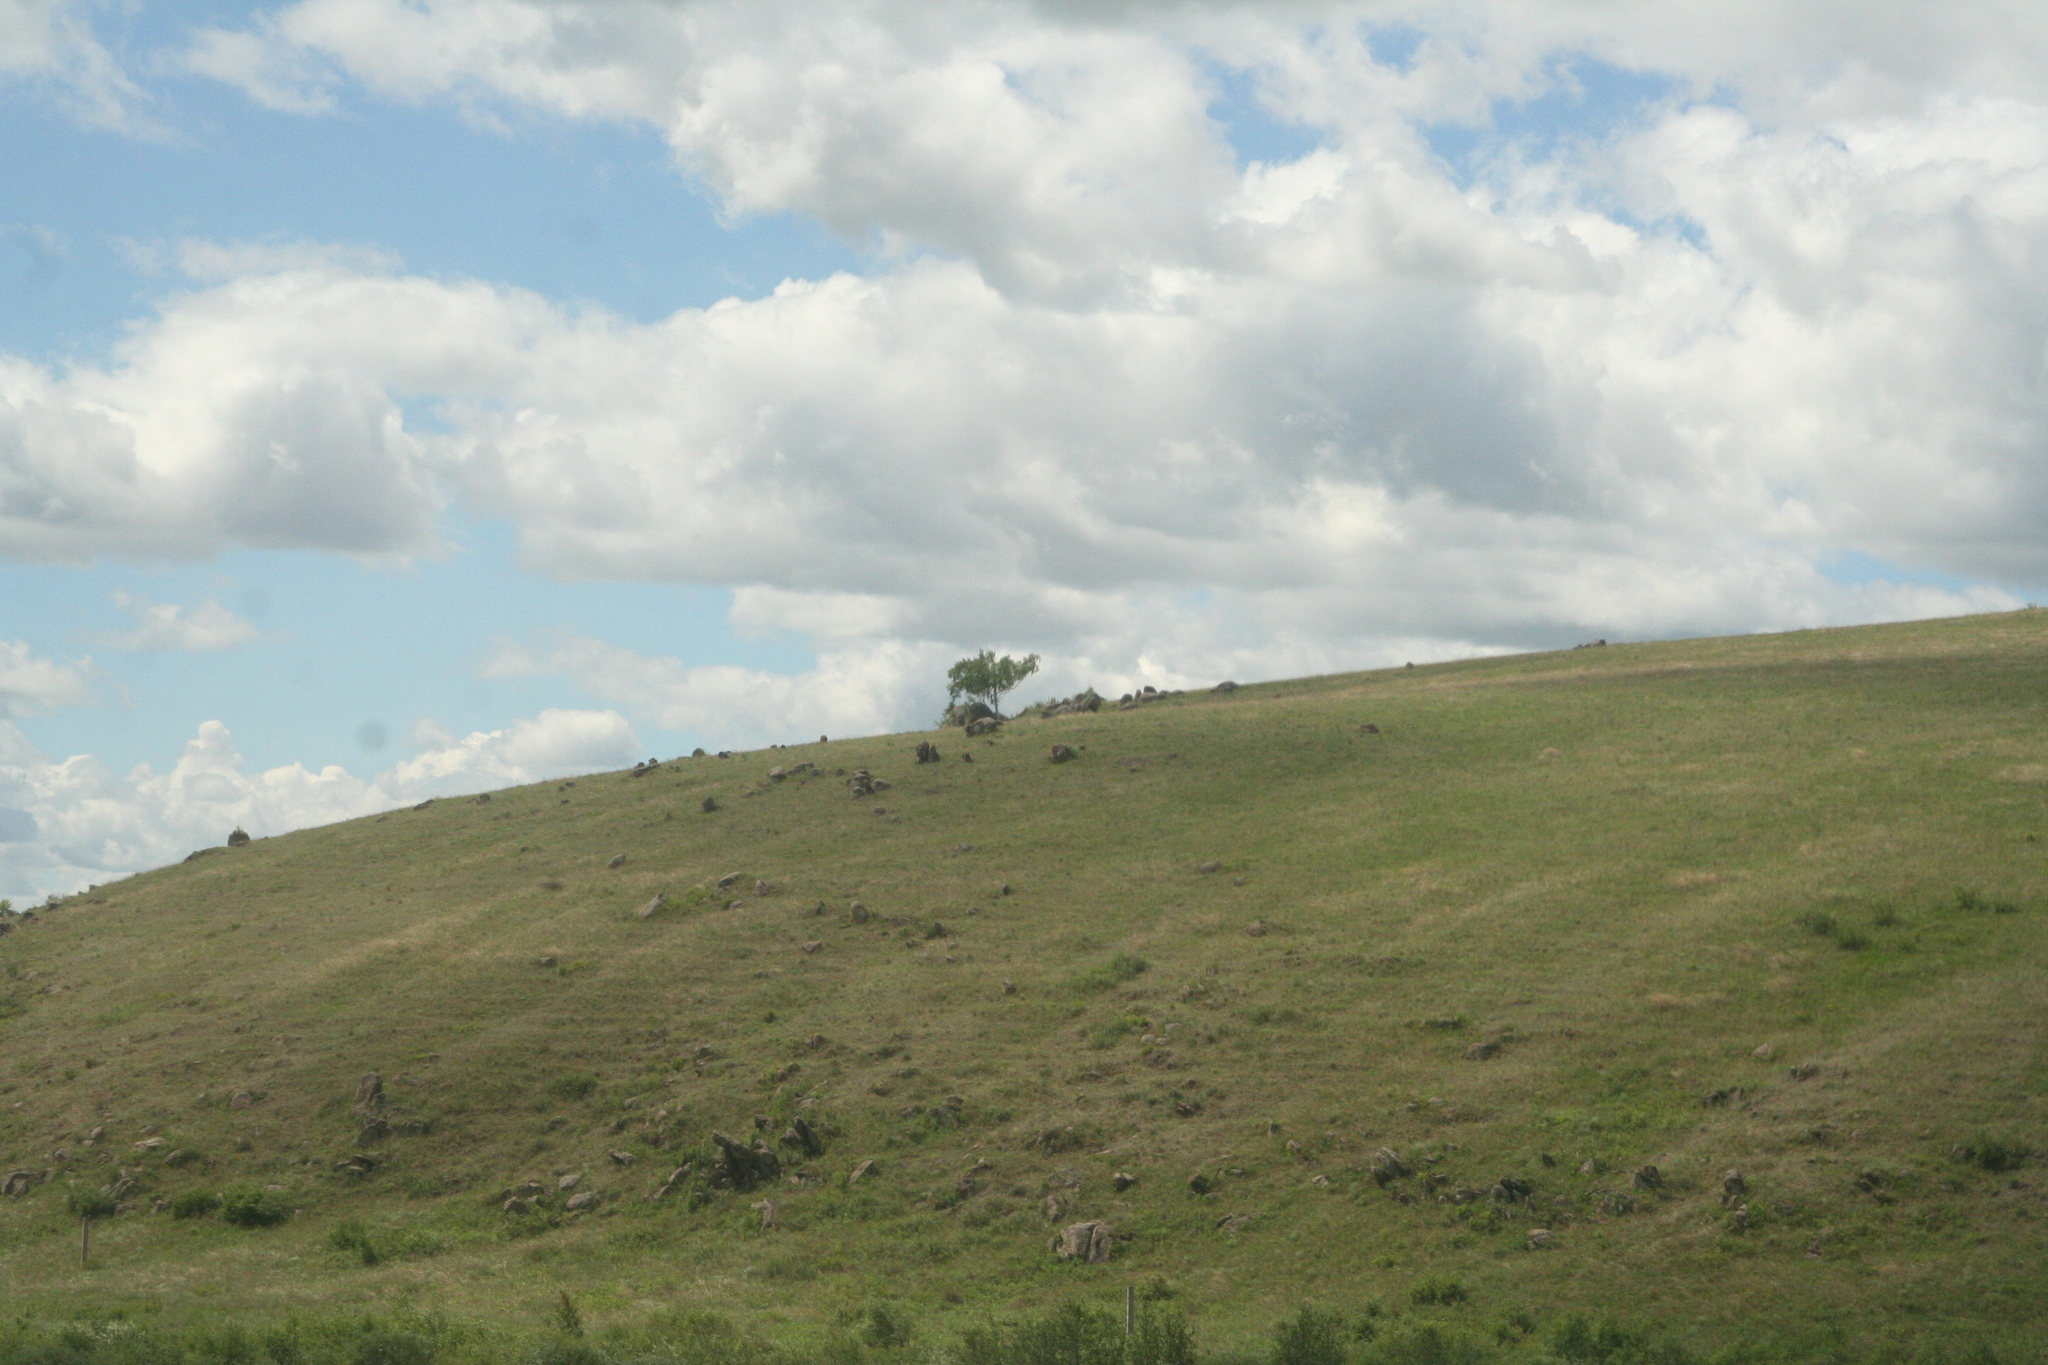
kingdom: Plantae
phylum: Tracheophyta
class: Magnoliopsida
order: Rosales
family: Ulmaceae
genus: Ulmus
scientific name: Ulmus pumila
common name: Siberian elm
